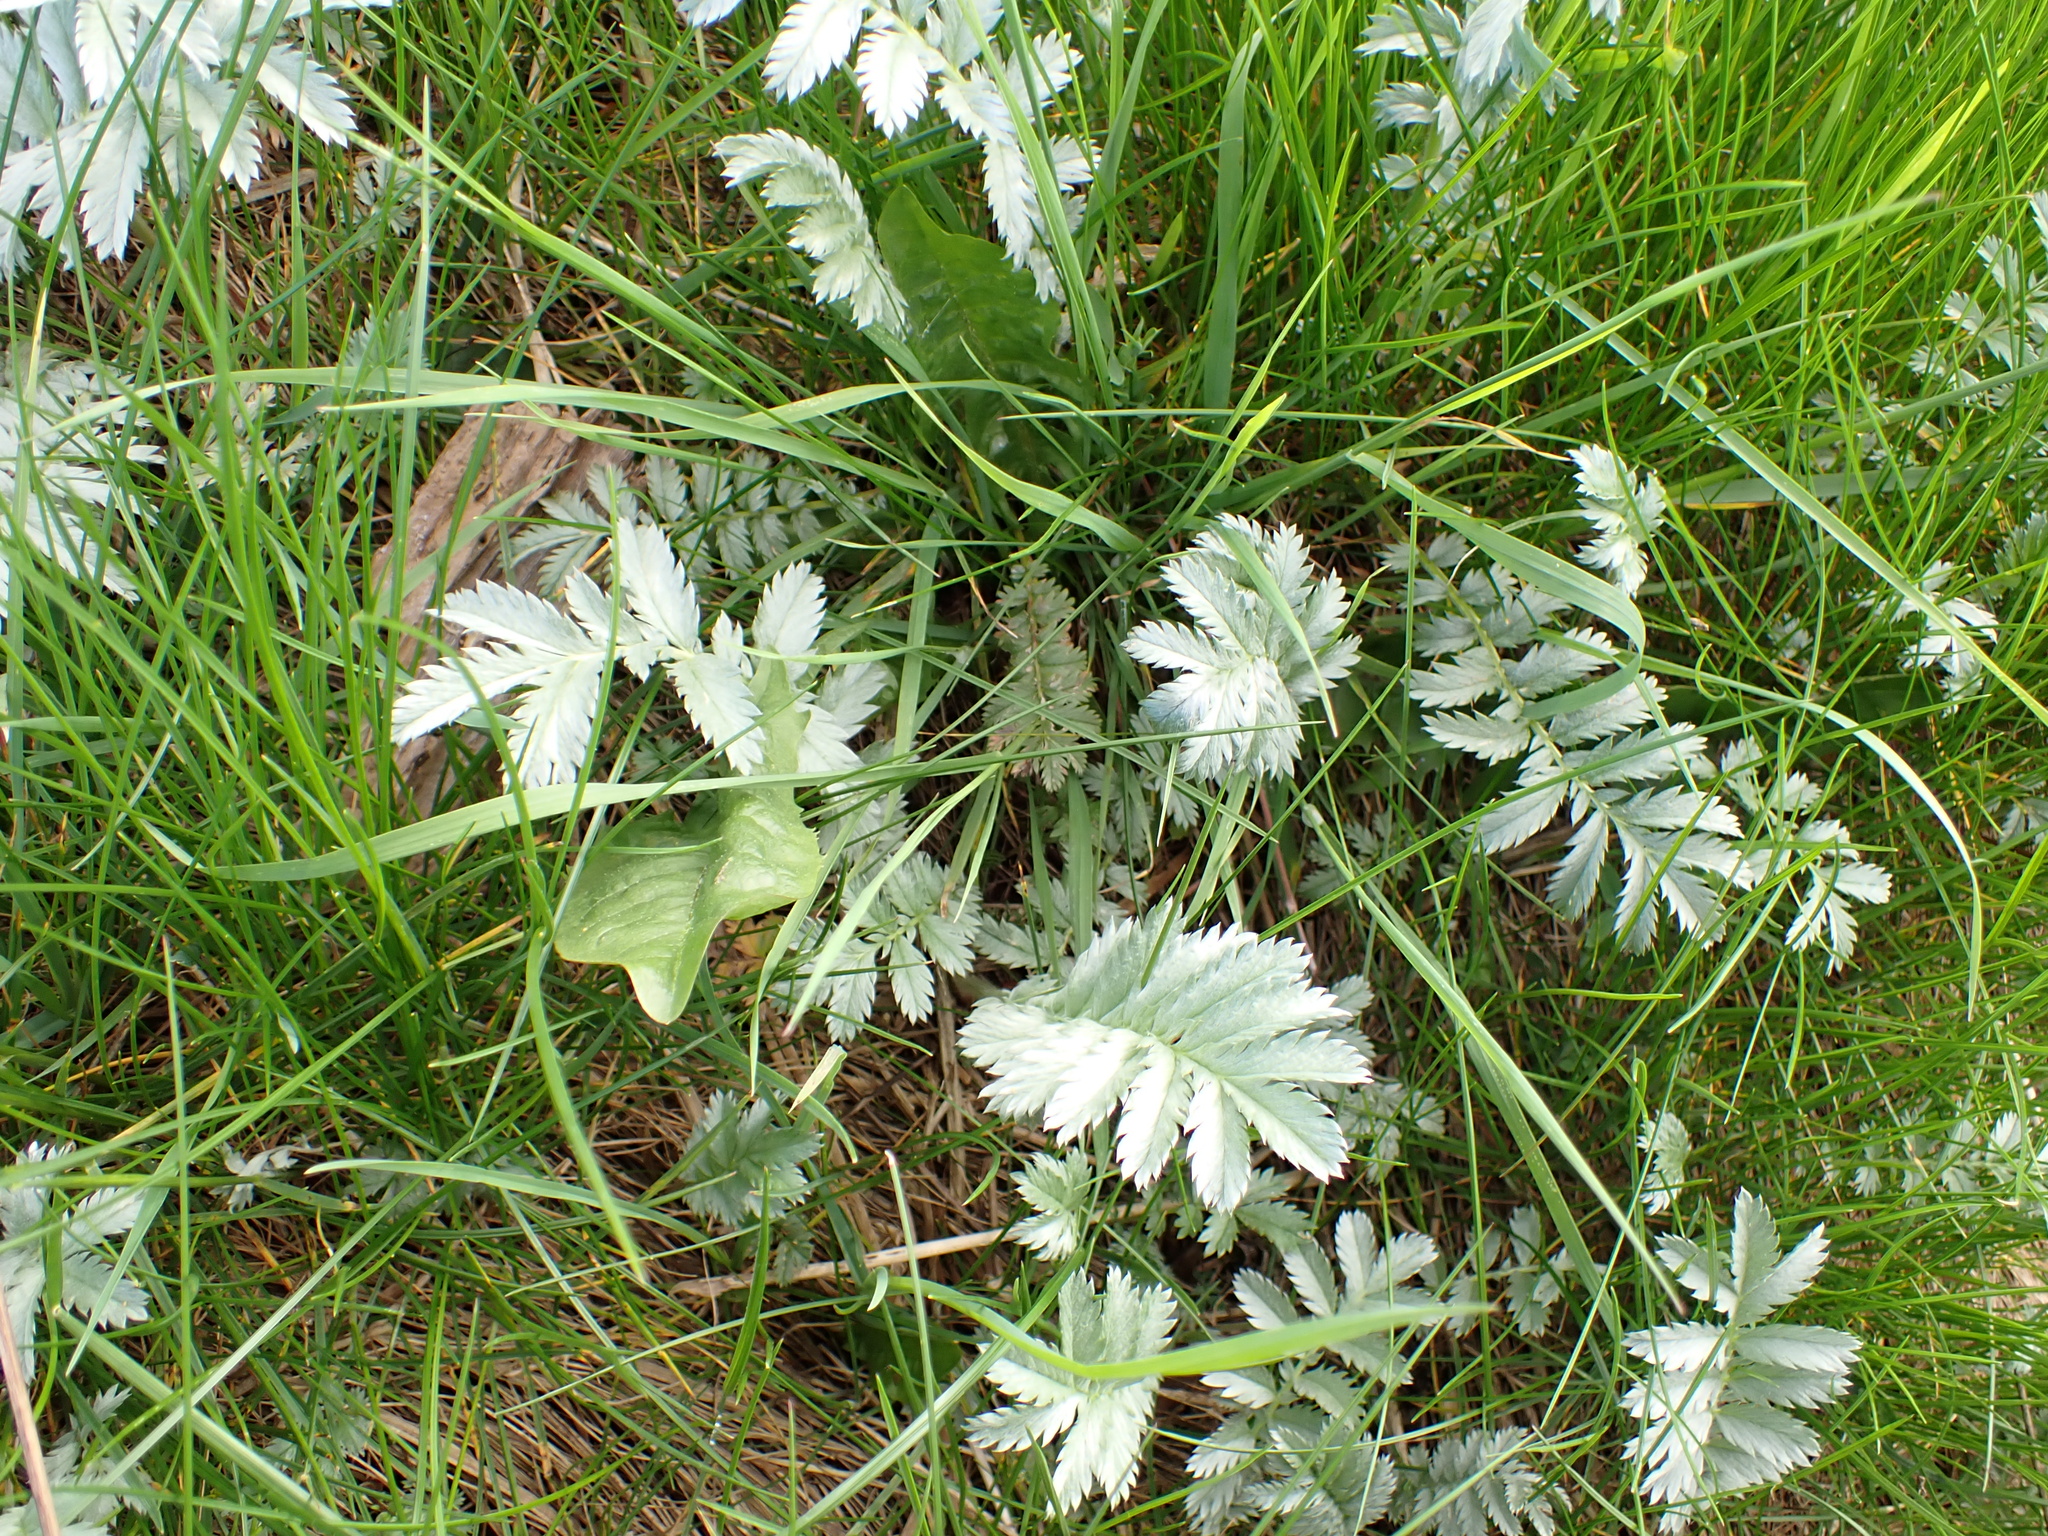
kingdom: Plantae
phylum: Tracheophyta
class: Magnoliopsida
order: Rosales
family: Rosaceae
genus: Argentina
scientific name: Argentina anserina
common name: Common silverweed
